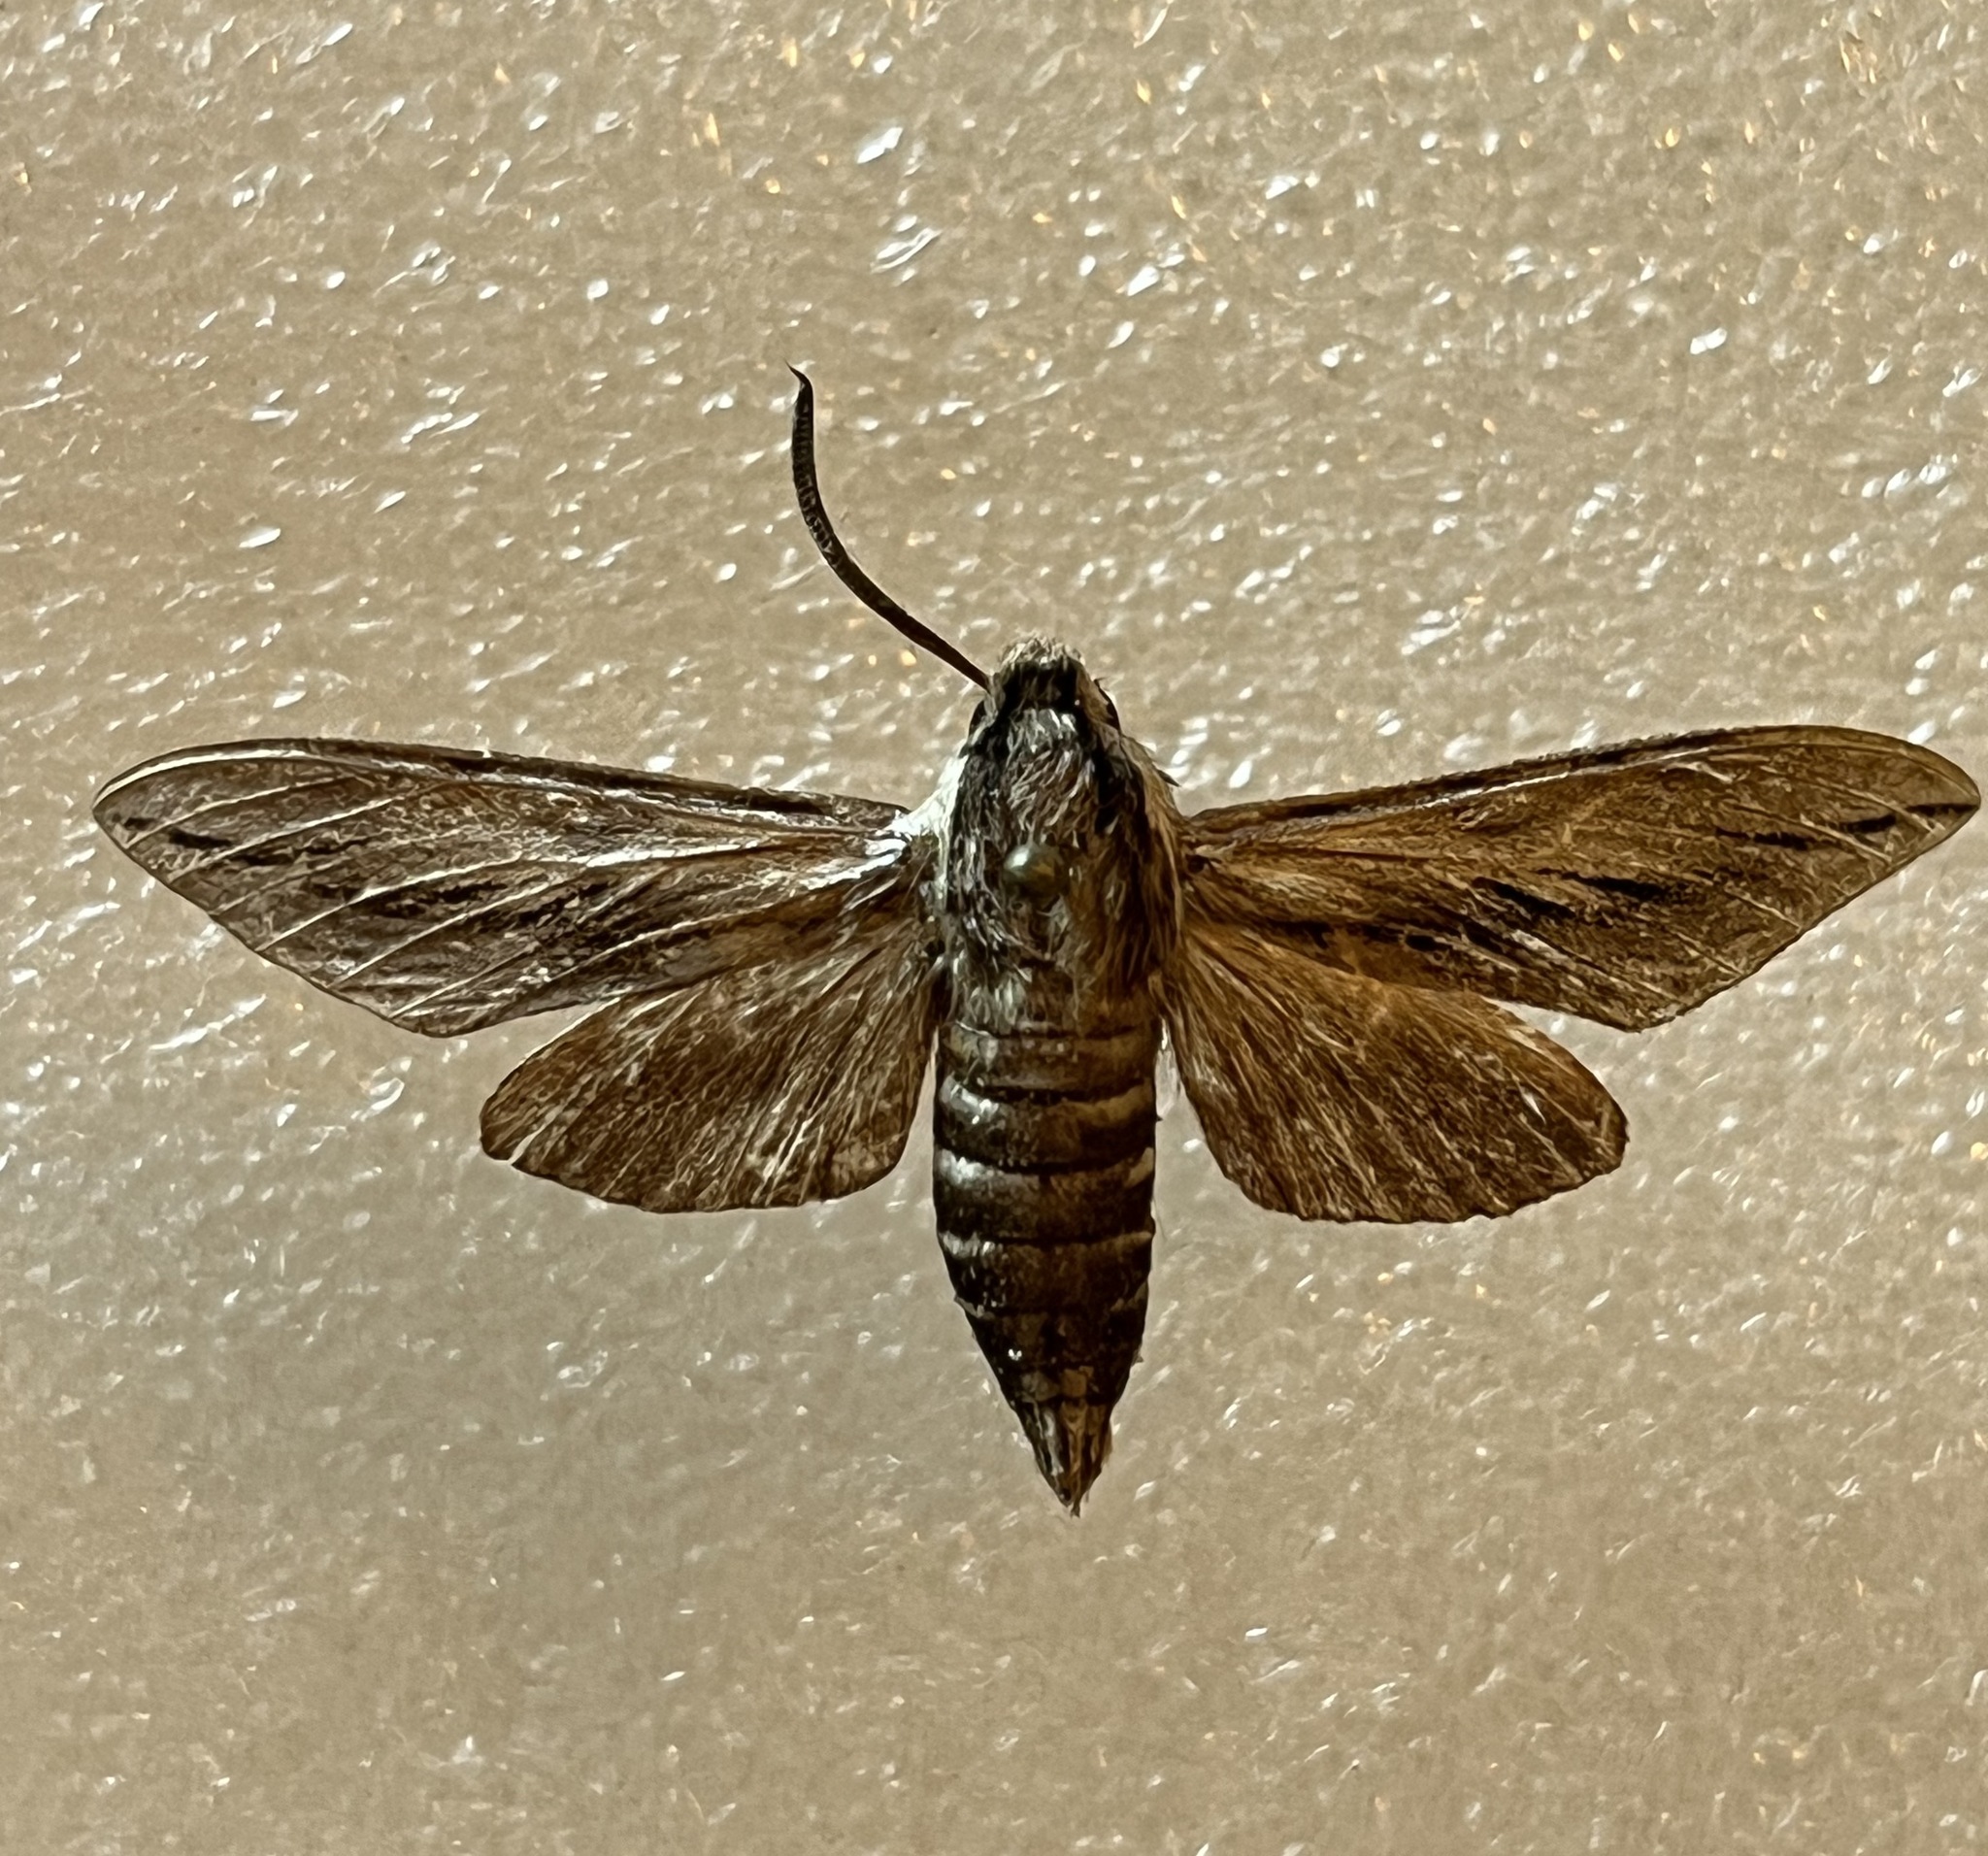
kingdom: Animalia
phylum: Arthropoda
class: Insecta
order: Lepidoptera
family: Sphingidae
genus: Sphinx
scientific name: Sphinx dollii
